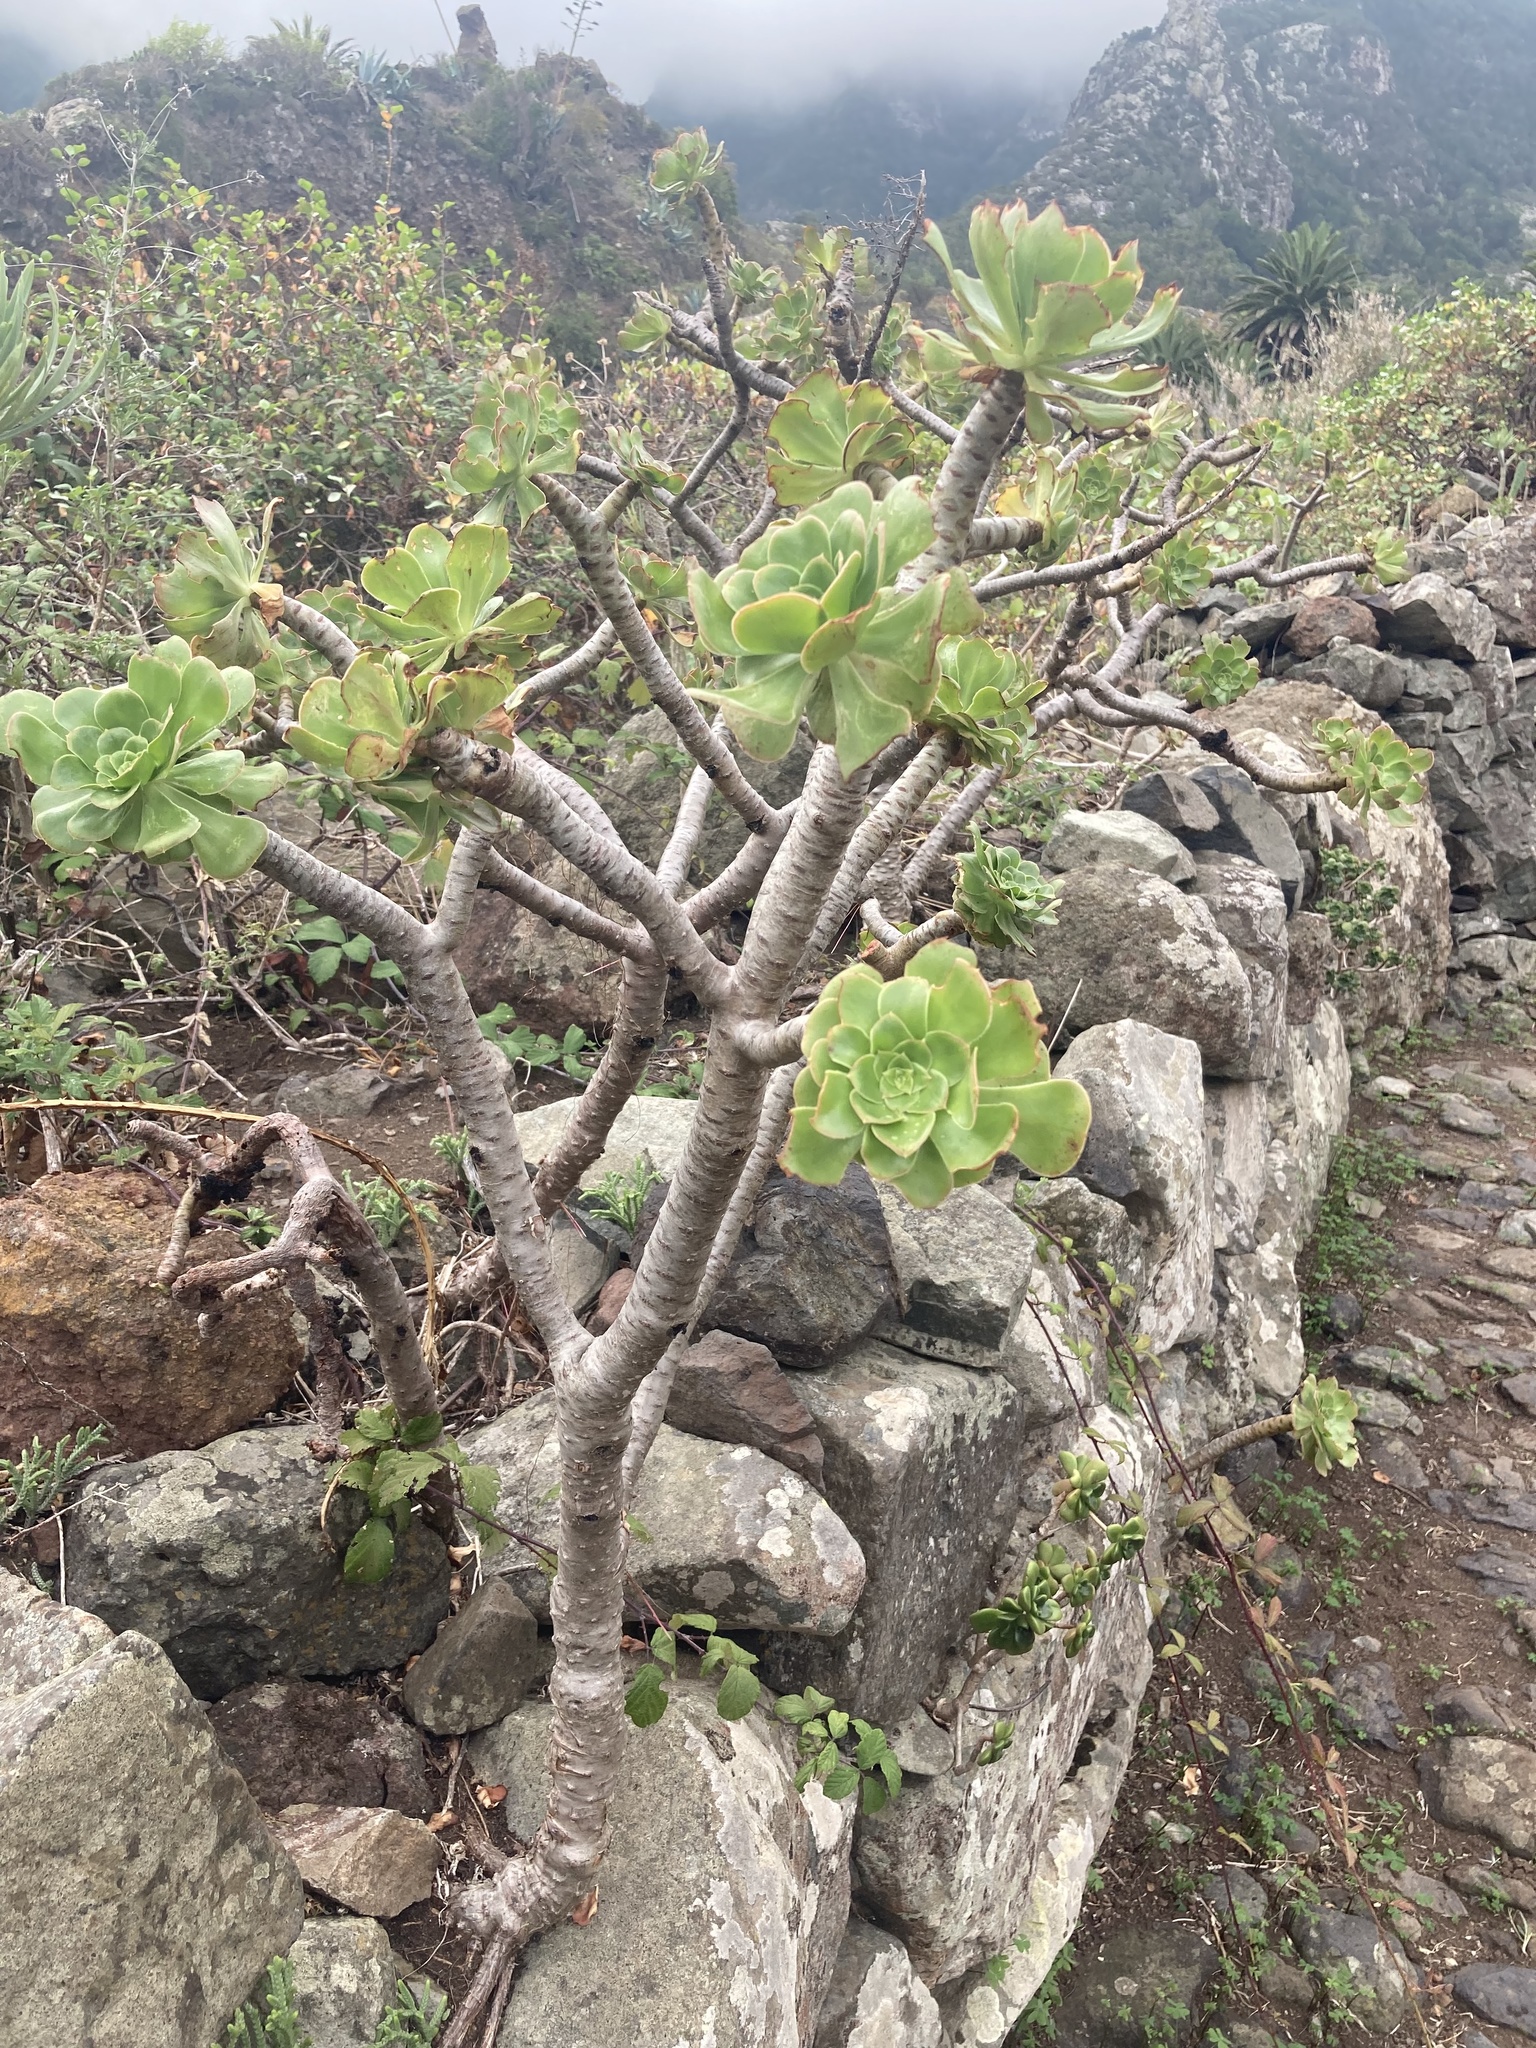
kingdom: Plantae
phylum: Tracheophyta
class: Magnoliopsida
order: Saxifragales
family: Crassulaceae
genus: Aeonium
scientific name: Aeonium arboreum
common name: Tree aeonium
